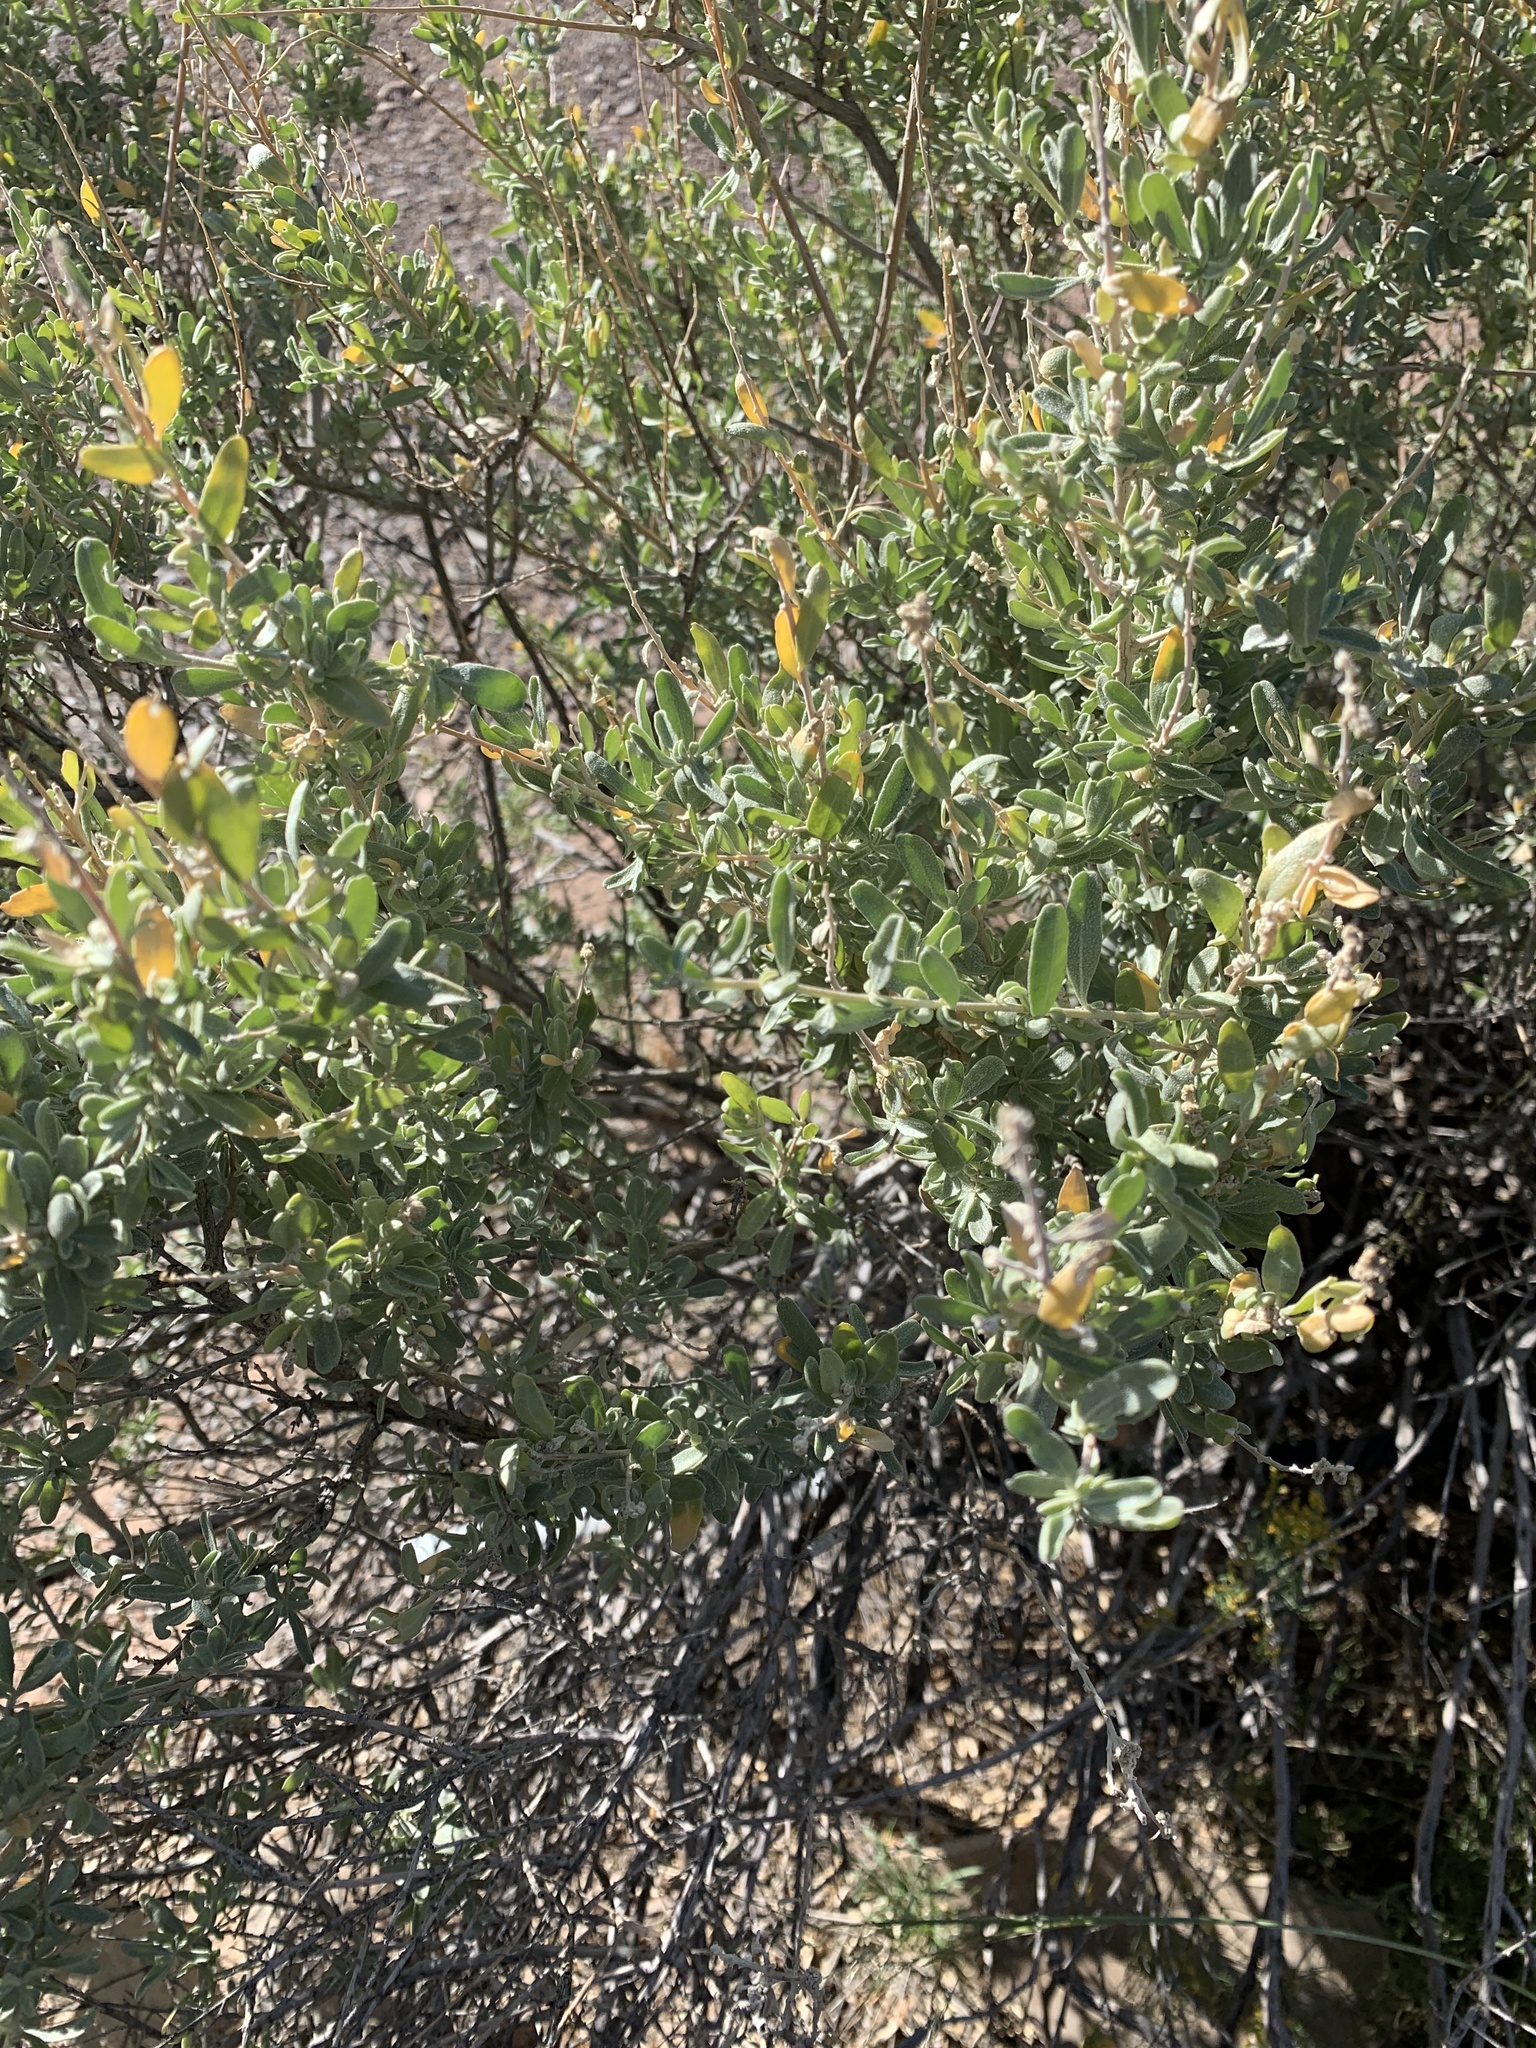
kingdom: Plantae
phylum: Tracheophyta
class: Magnoliopsida
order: Caryophyllales
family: Amaranthaceae
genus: Atriplex
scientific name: Atriplex canescens
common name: Four-wing saltbush
